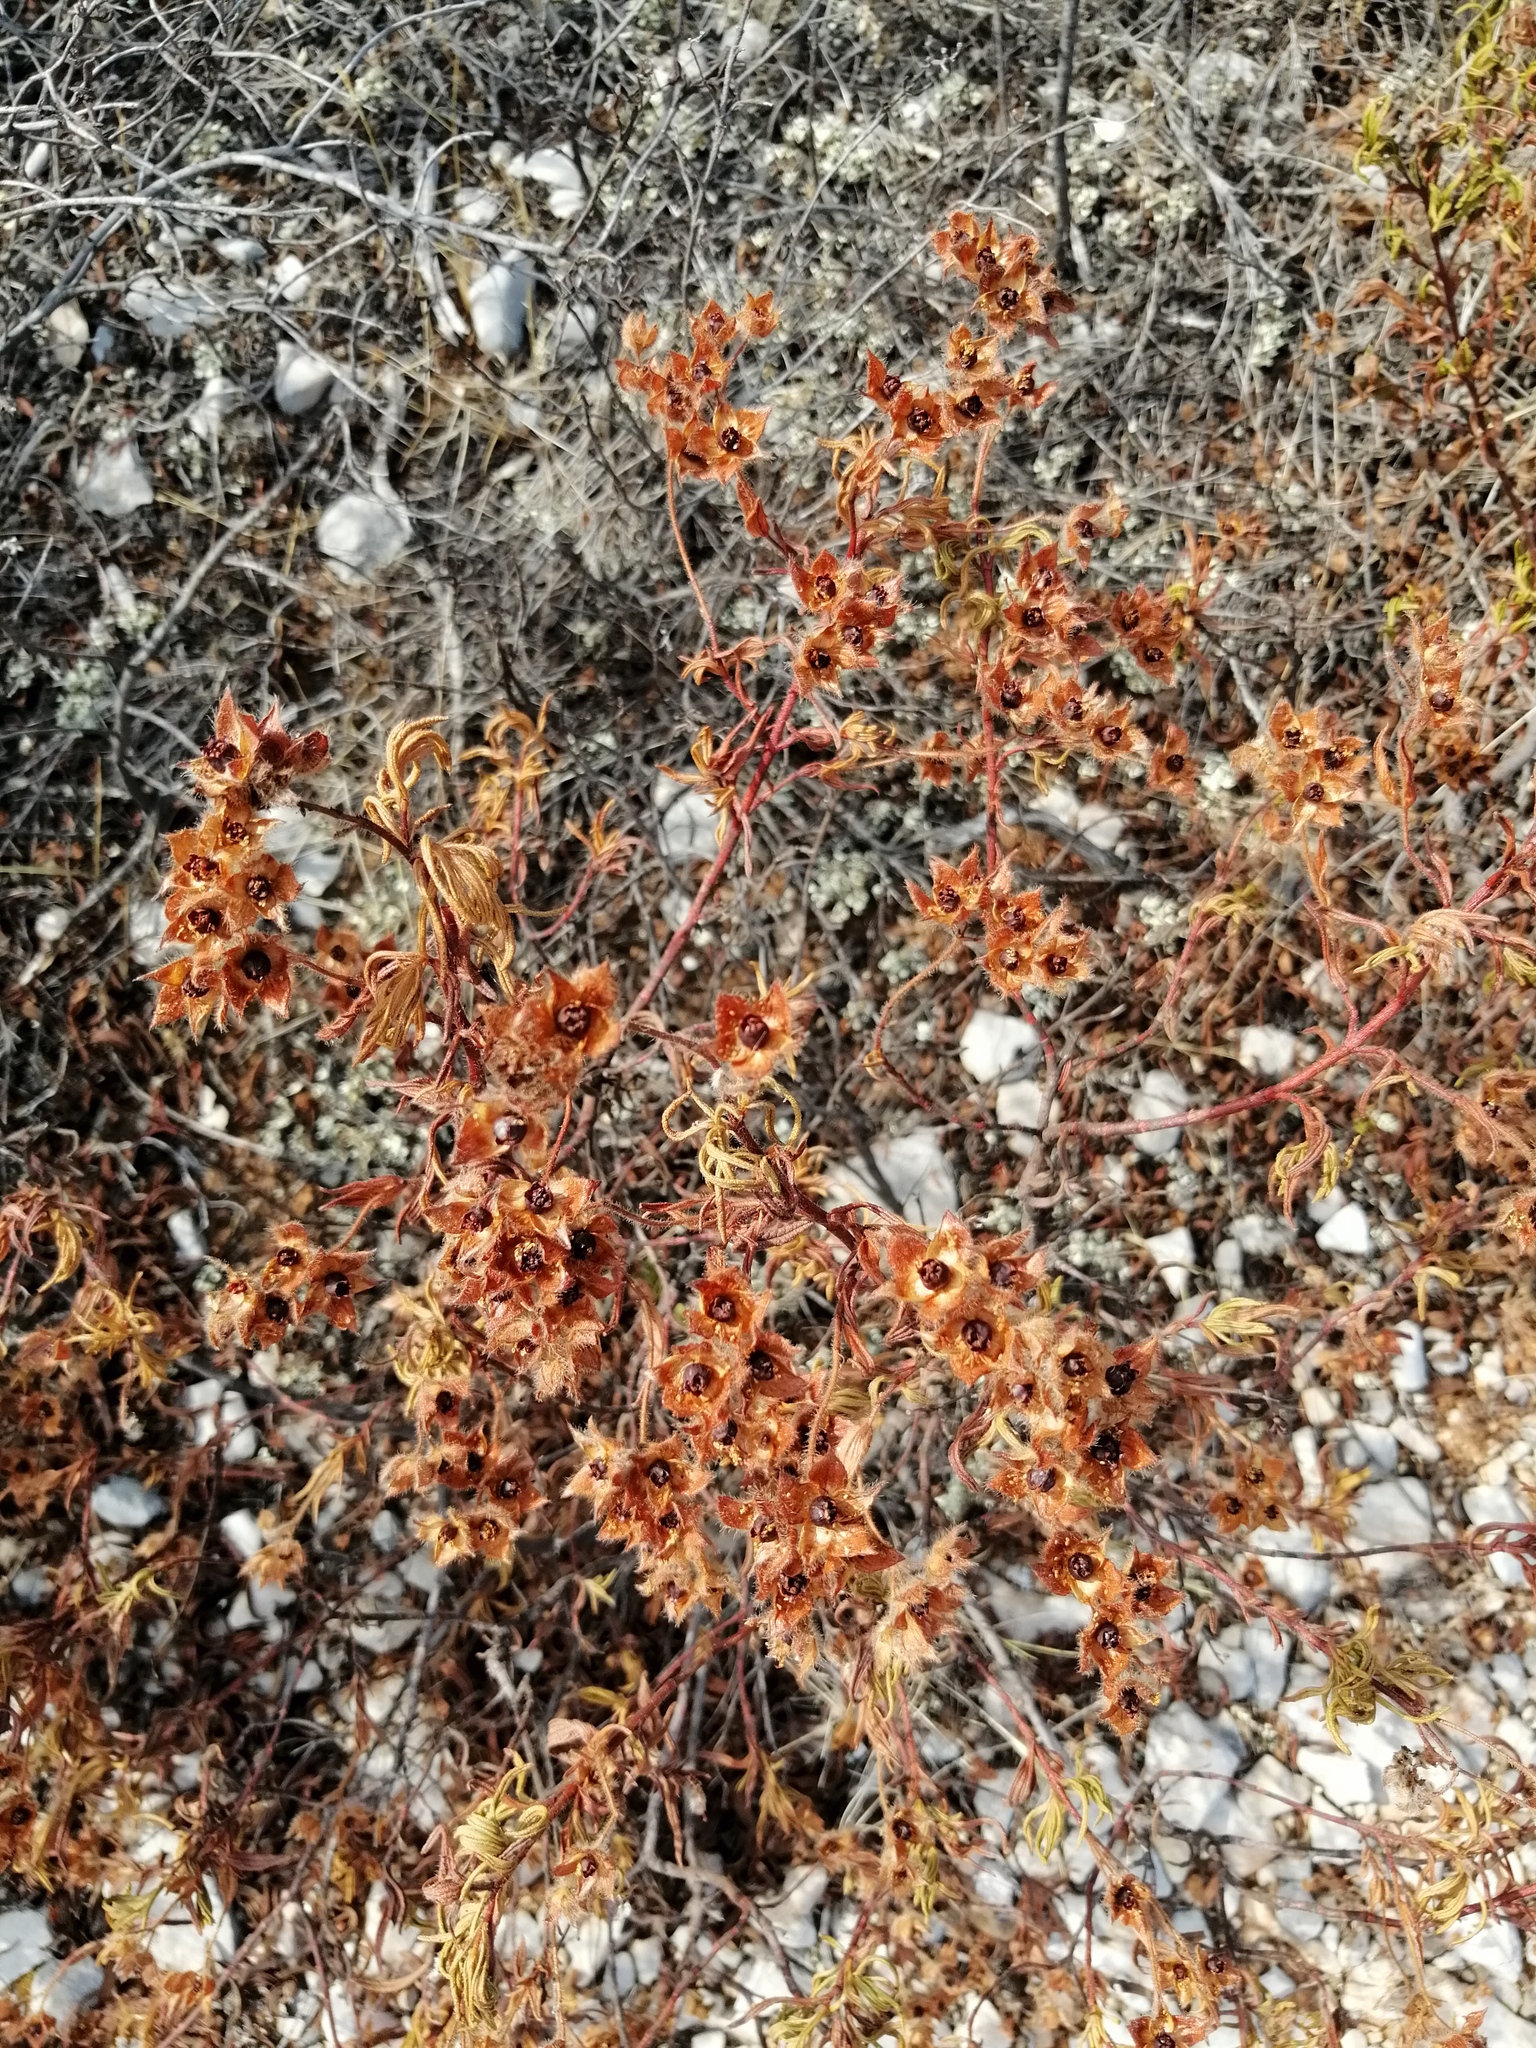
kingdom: Plantae
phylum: Tracheophyta
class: Magnoliopsida
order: Malvales
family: Cistaceae
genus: Cistus
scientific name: Cistus monspeliensis
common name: Montpelier cistus
